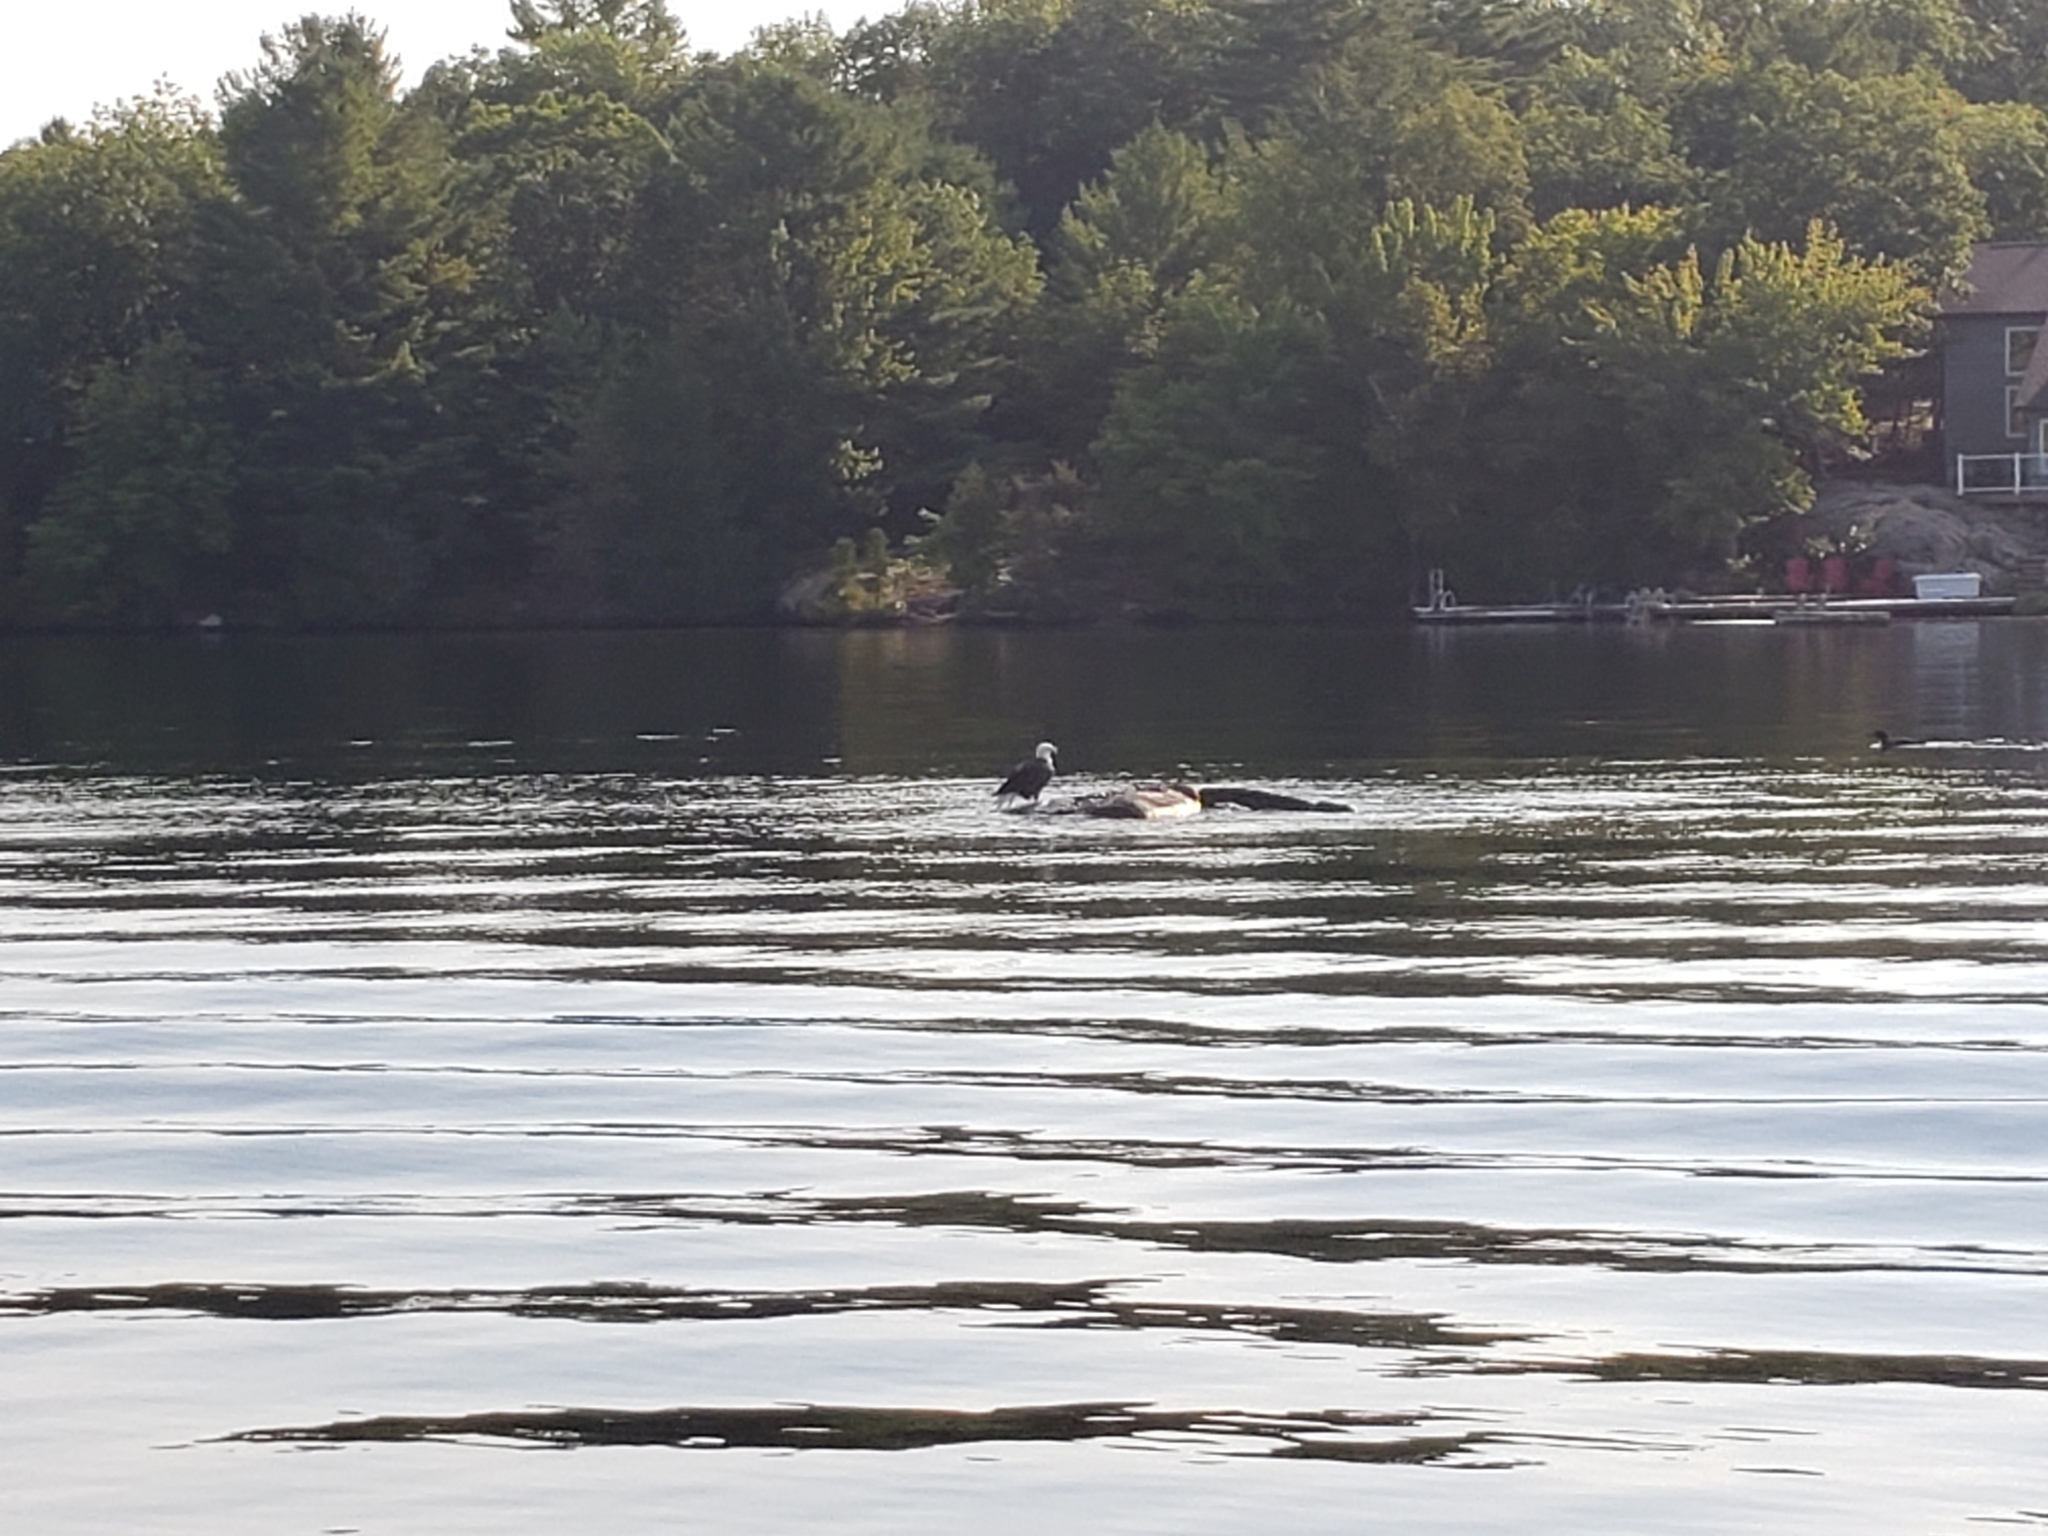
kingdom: Animalia
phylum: Chordata
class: Aves
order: Accipitriformes
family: Accipitridae
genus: Haliaeetus
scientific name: Haliaeetus leucocephalus
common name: Bald eagle
